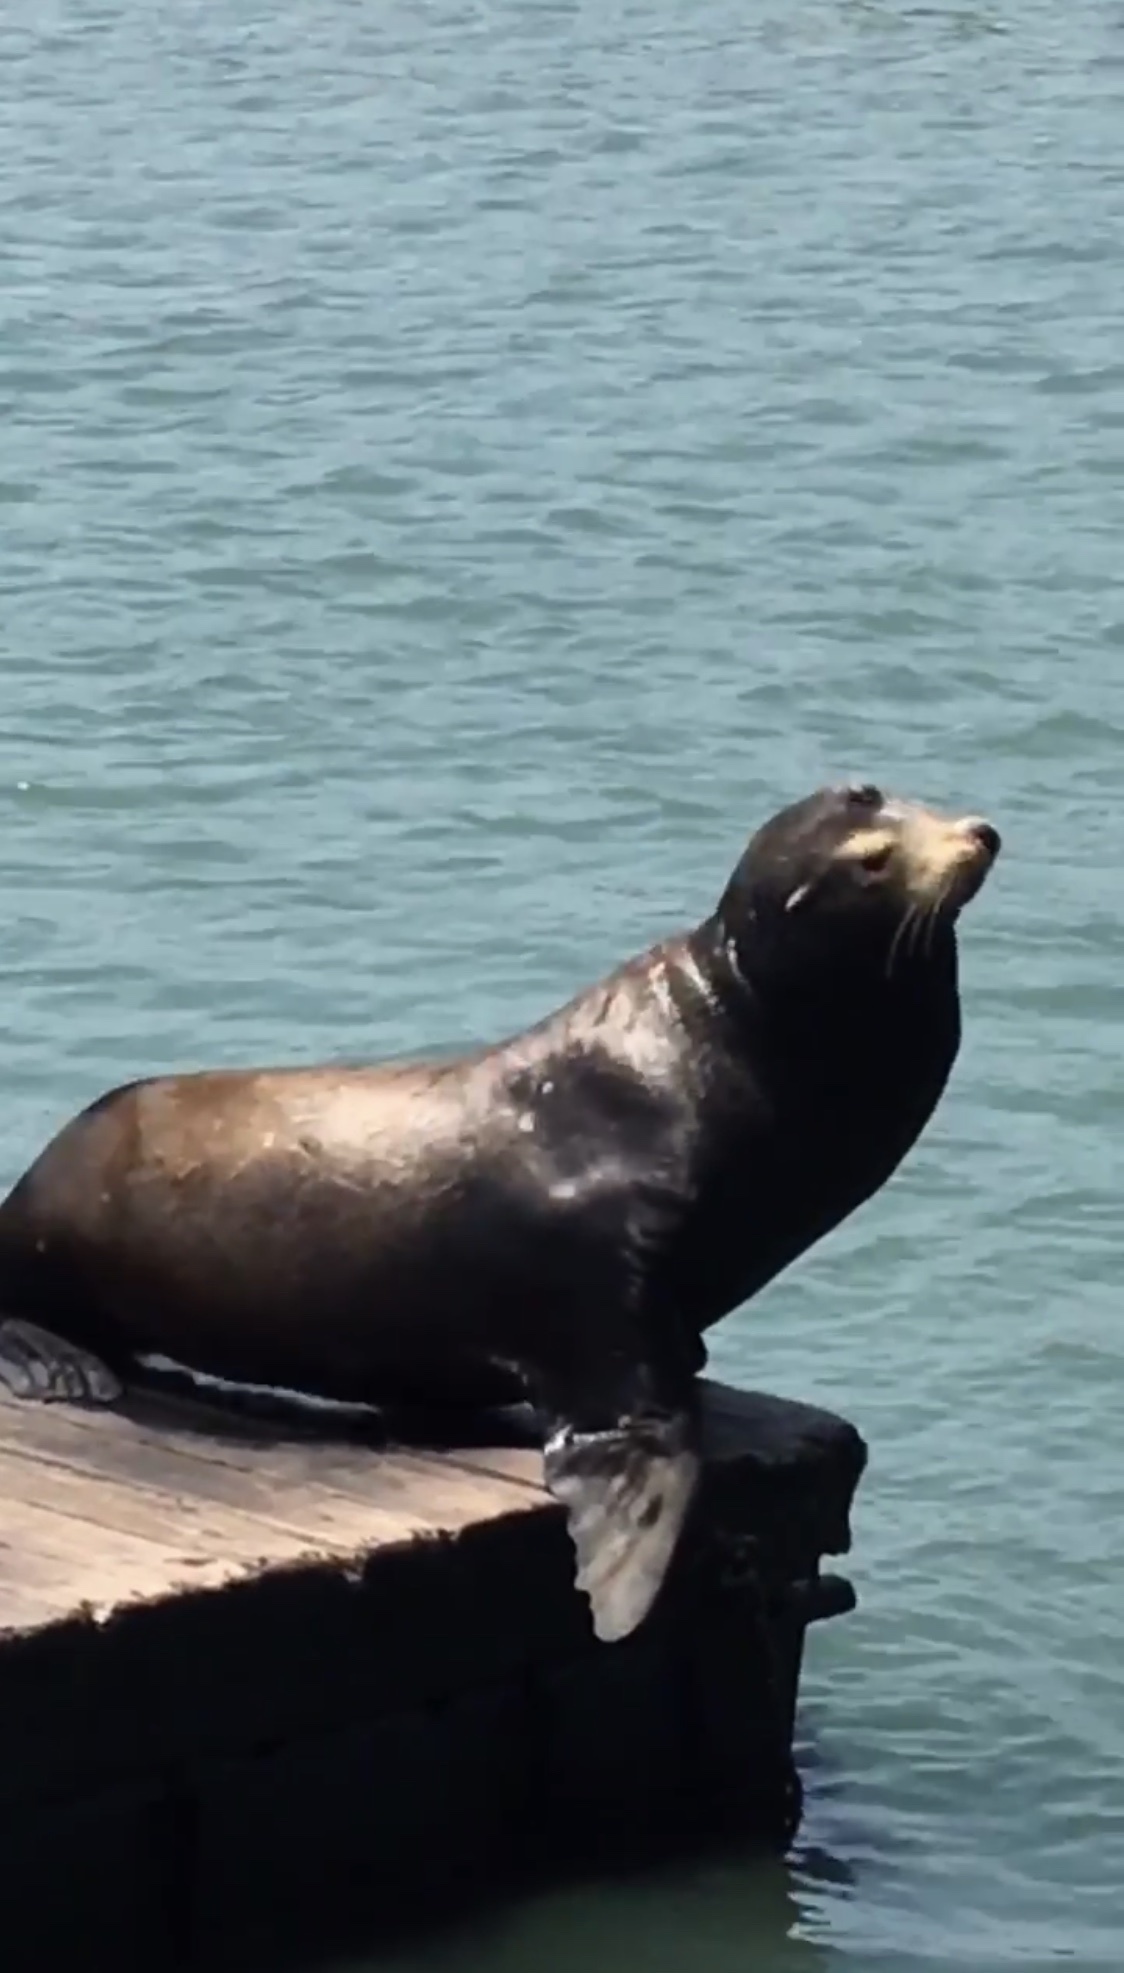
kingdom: Animalia
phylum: Chordata
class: Mammalia
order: Carnivora
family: Otariidae
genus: Zalophus
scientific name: Zalophus californianus
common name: California sea lion
